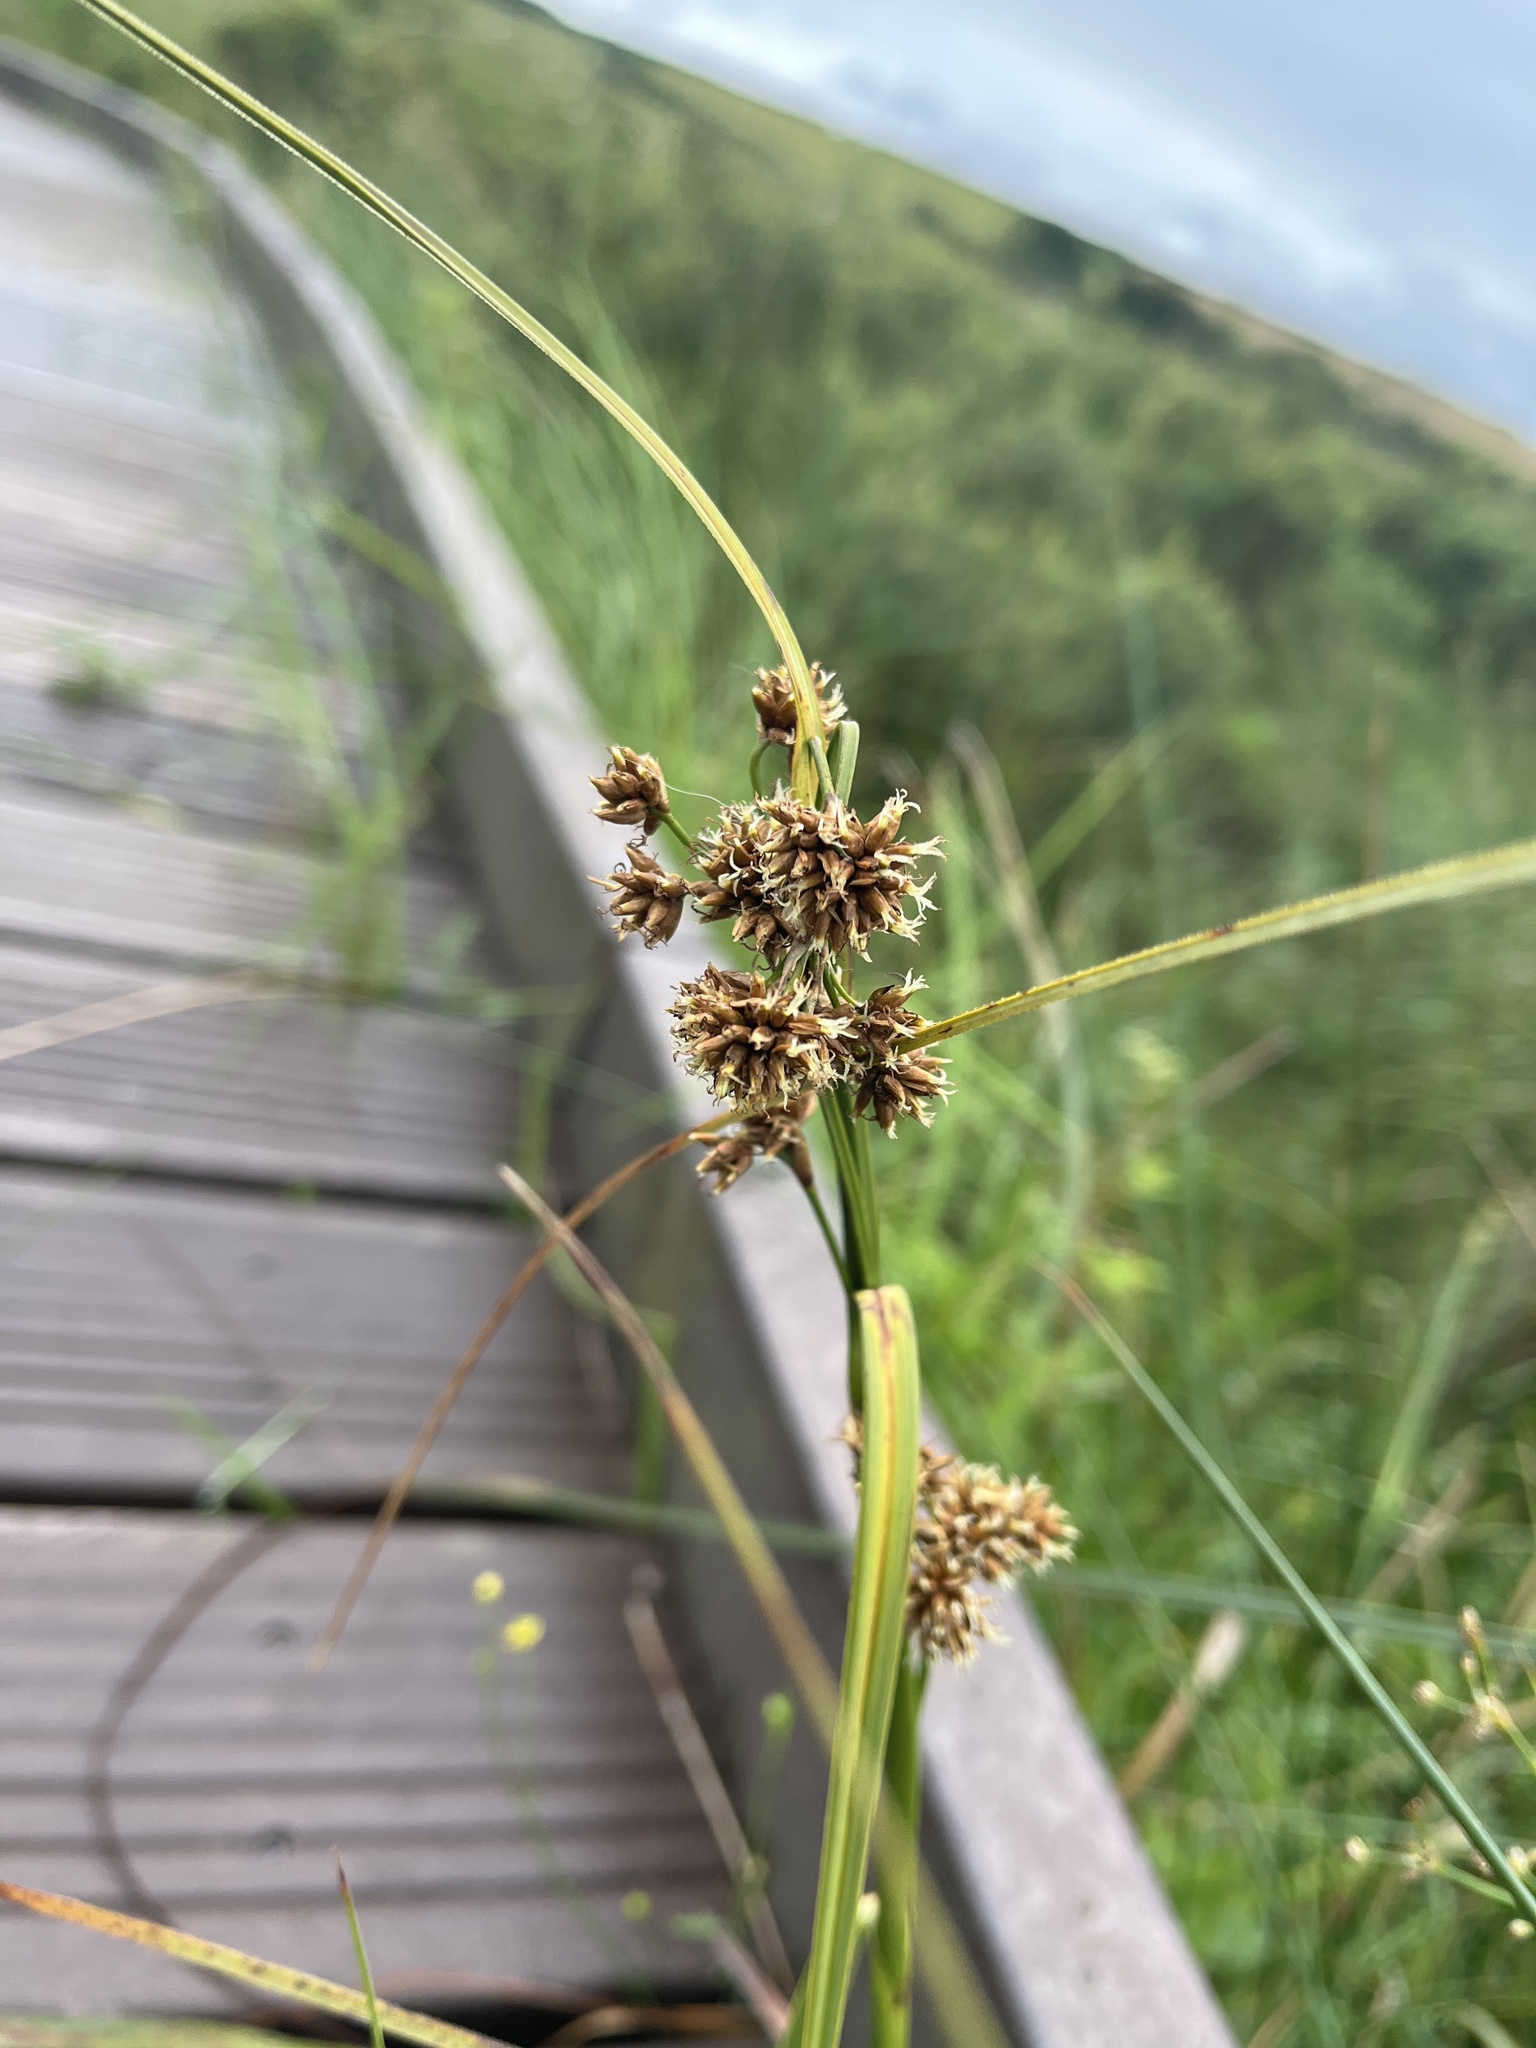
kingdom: Plantae
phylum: Tracheophyta
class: Liliopsida
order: Poales
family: Cyperaceae
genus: Cladium
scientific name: Cladium mariscus
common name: Great fen-sedge
